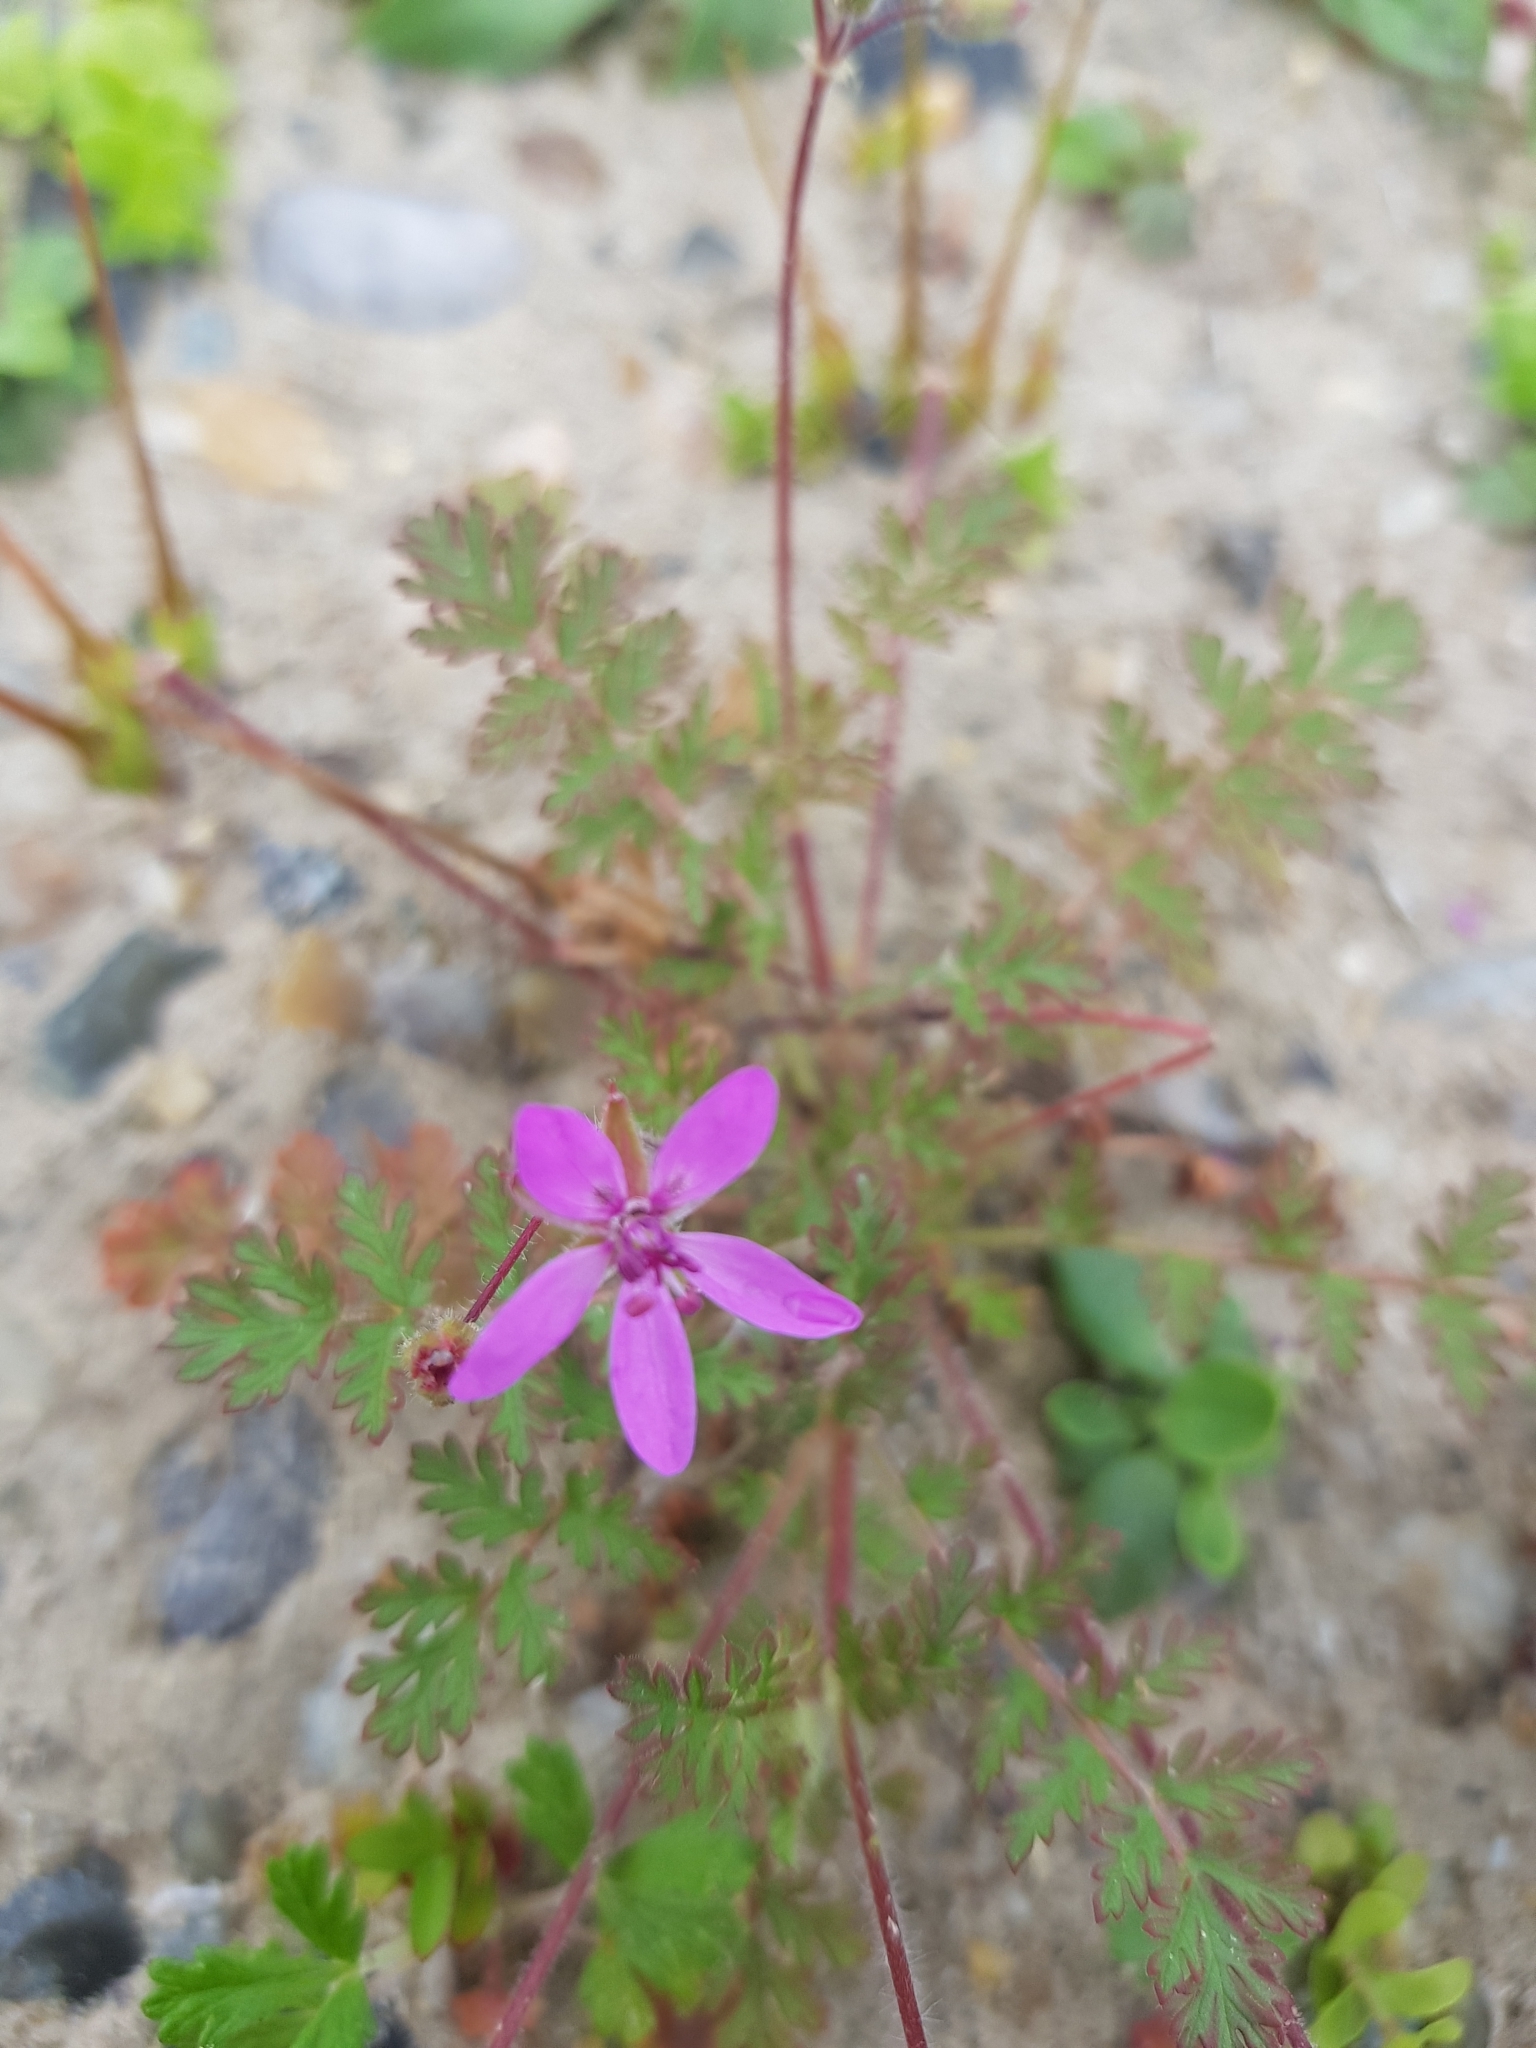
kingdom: Plantae
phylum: Tracheophyta
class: Magnoliopsida
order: Geraniales
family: Geraniaceae
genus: Erodium
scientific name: Erodium cicutarium
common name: Common stork's-bill
